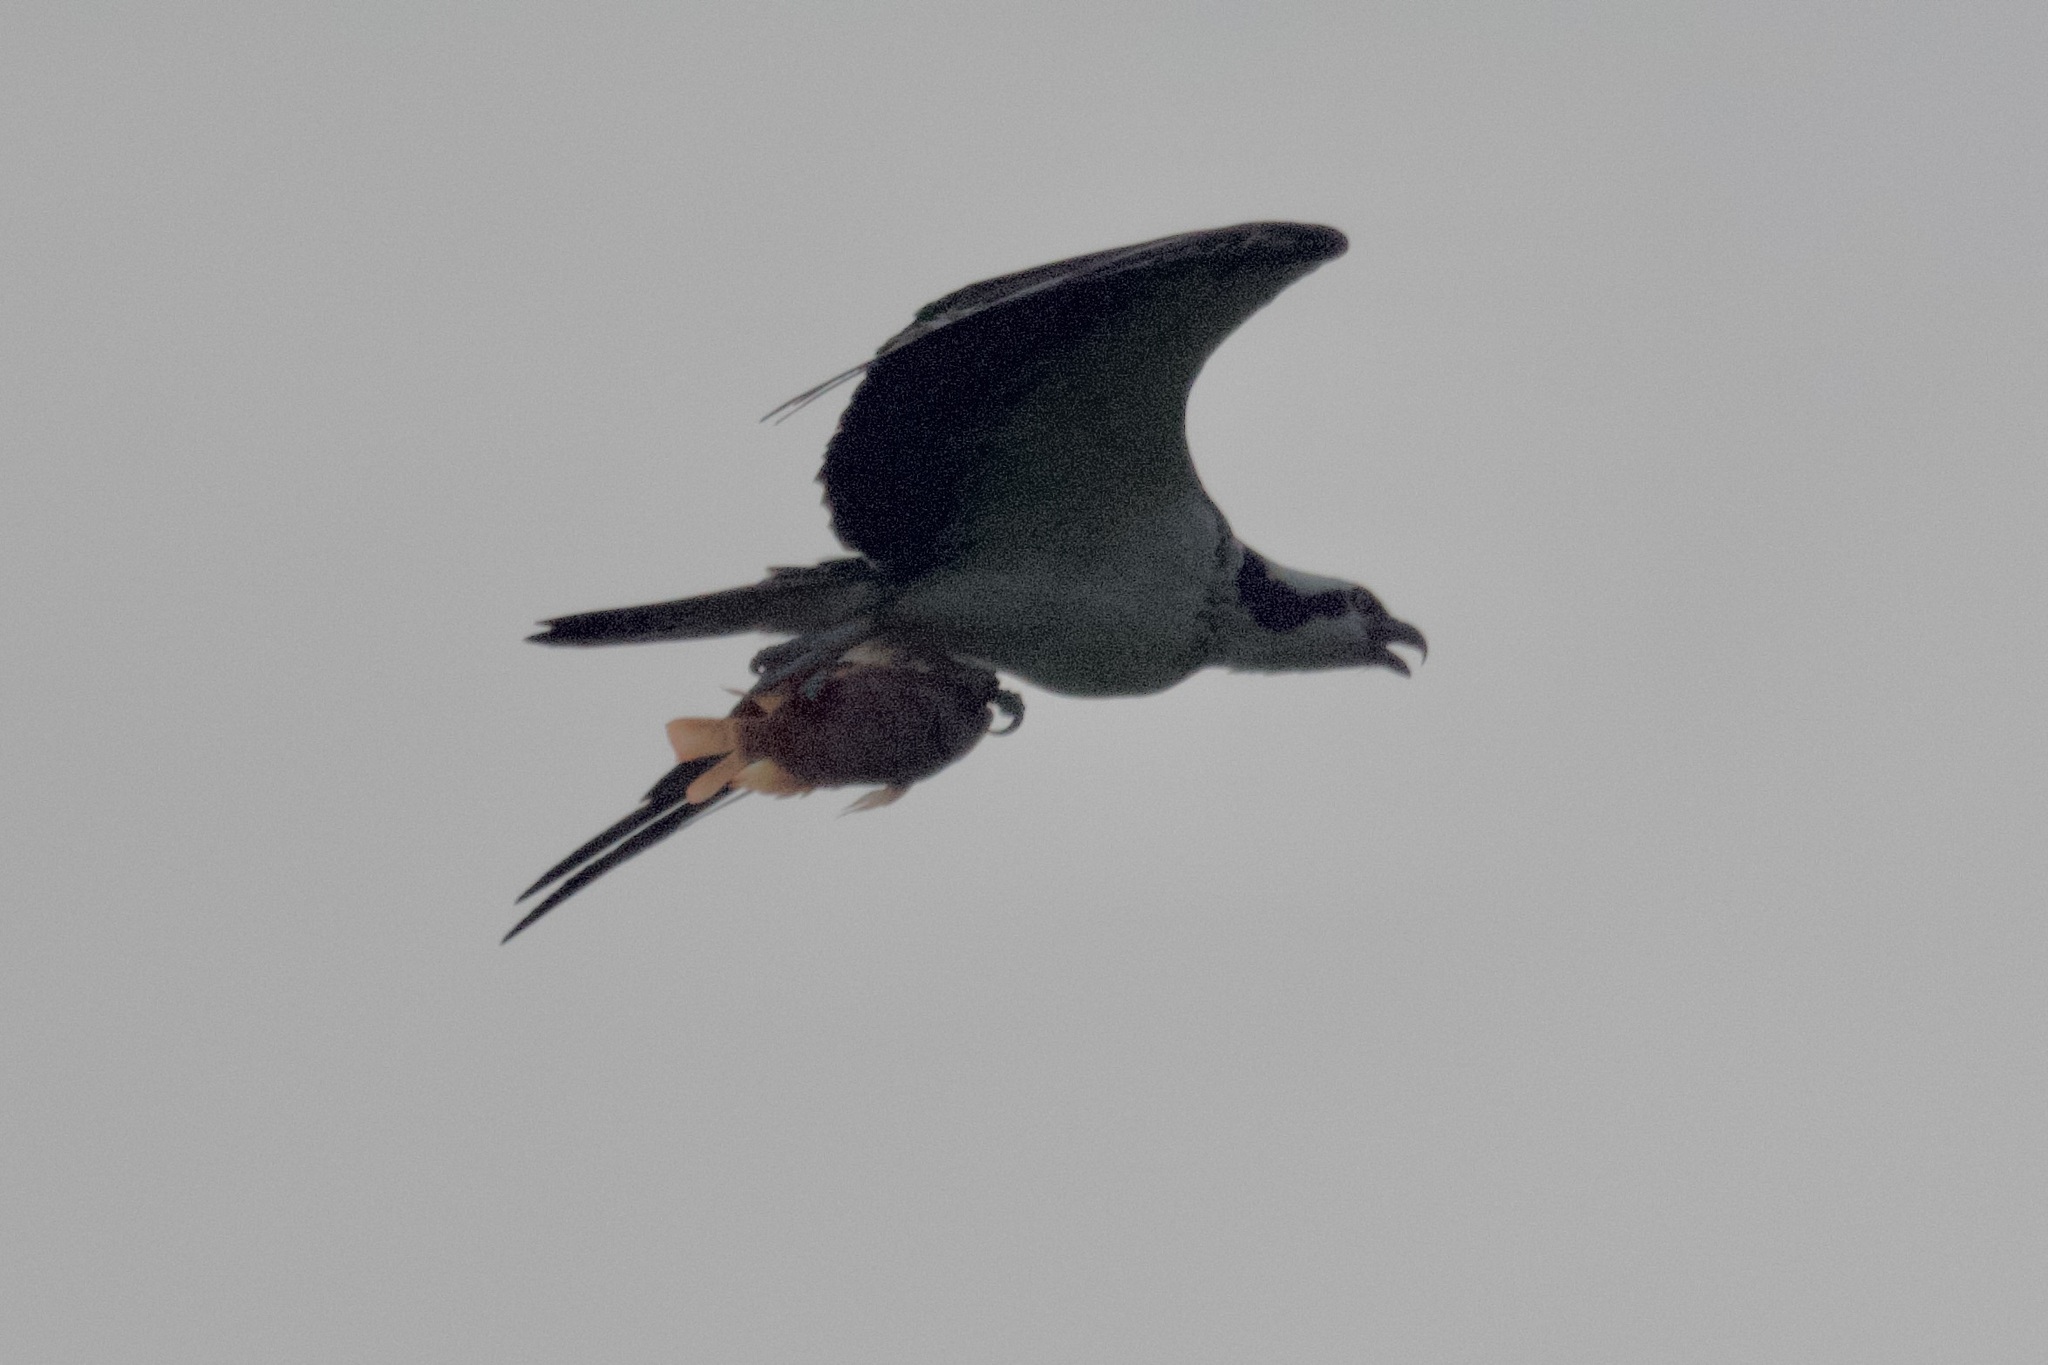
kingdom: Animalia
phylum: Chordata
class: Aves
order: Accipitriformes
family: Pandionidae
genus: Pandion
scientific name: Pandion haliaetus
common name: Osprey
